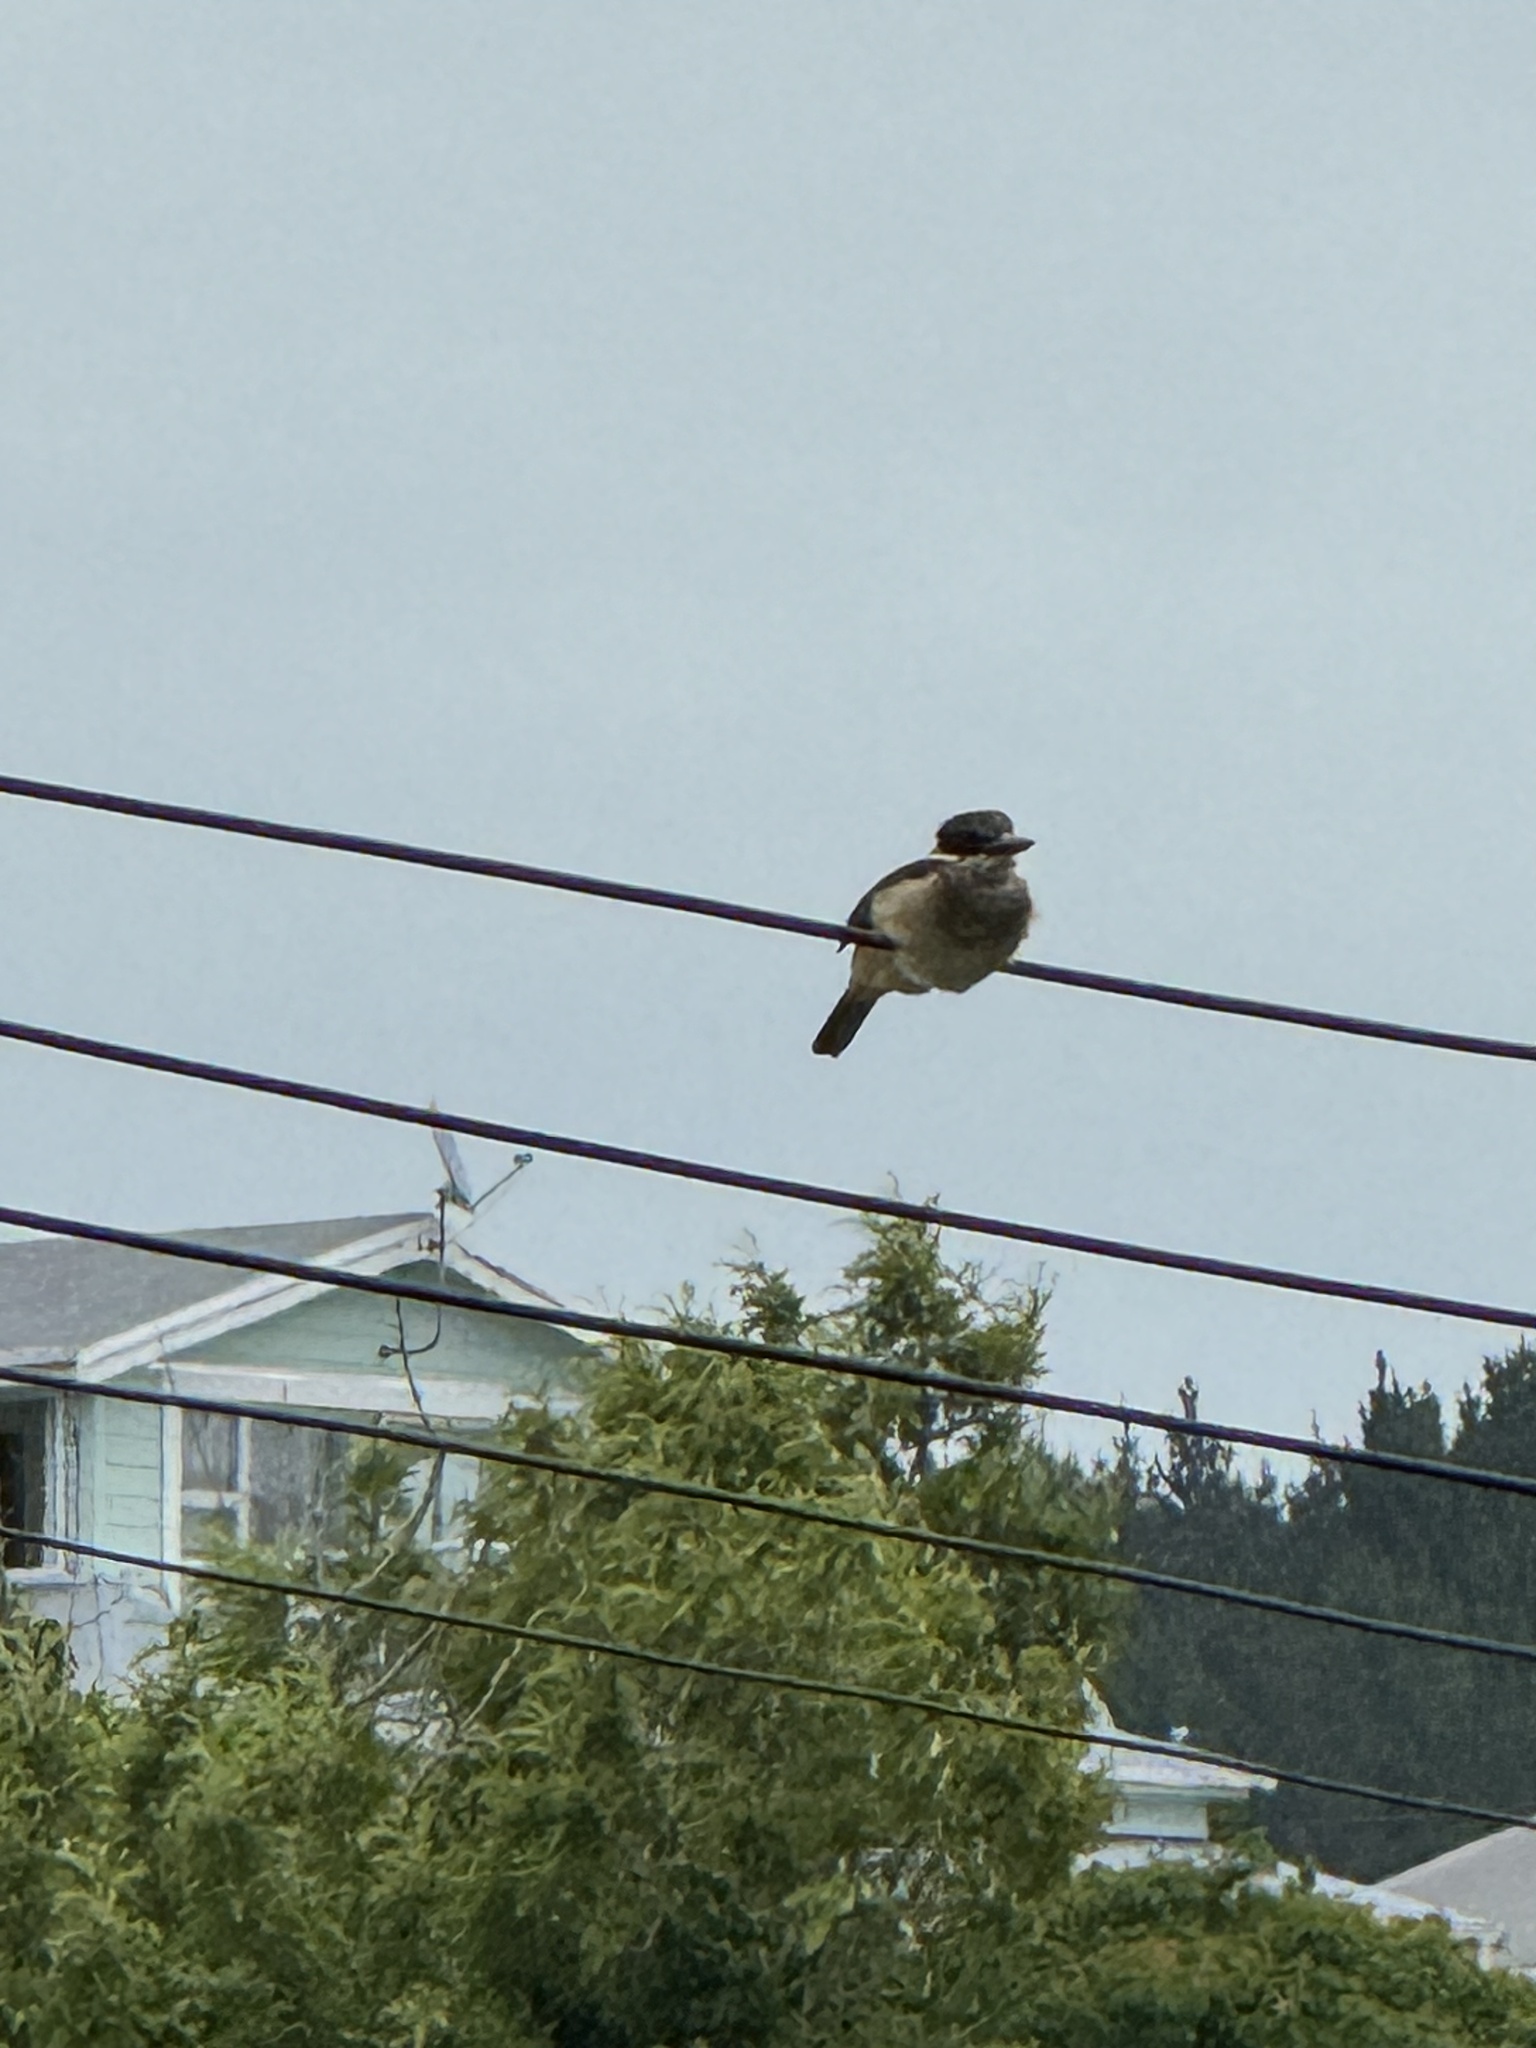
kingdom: Animalia
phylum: Chordata
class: Aves
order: Coraciiformes
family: Alcedinidae
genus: Todiramphus
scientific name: Todiramphus sanctus
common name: Sacred kingfisher
